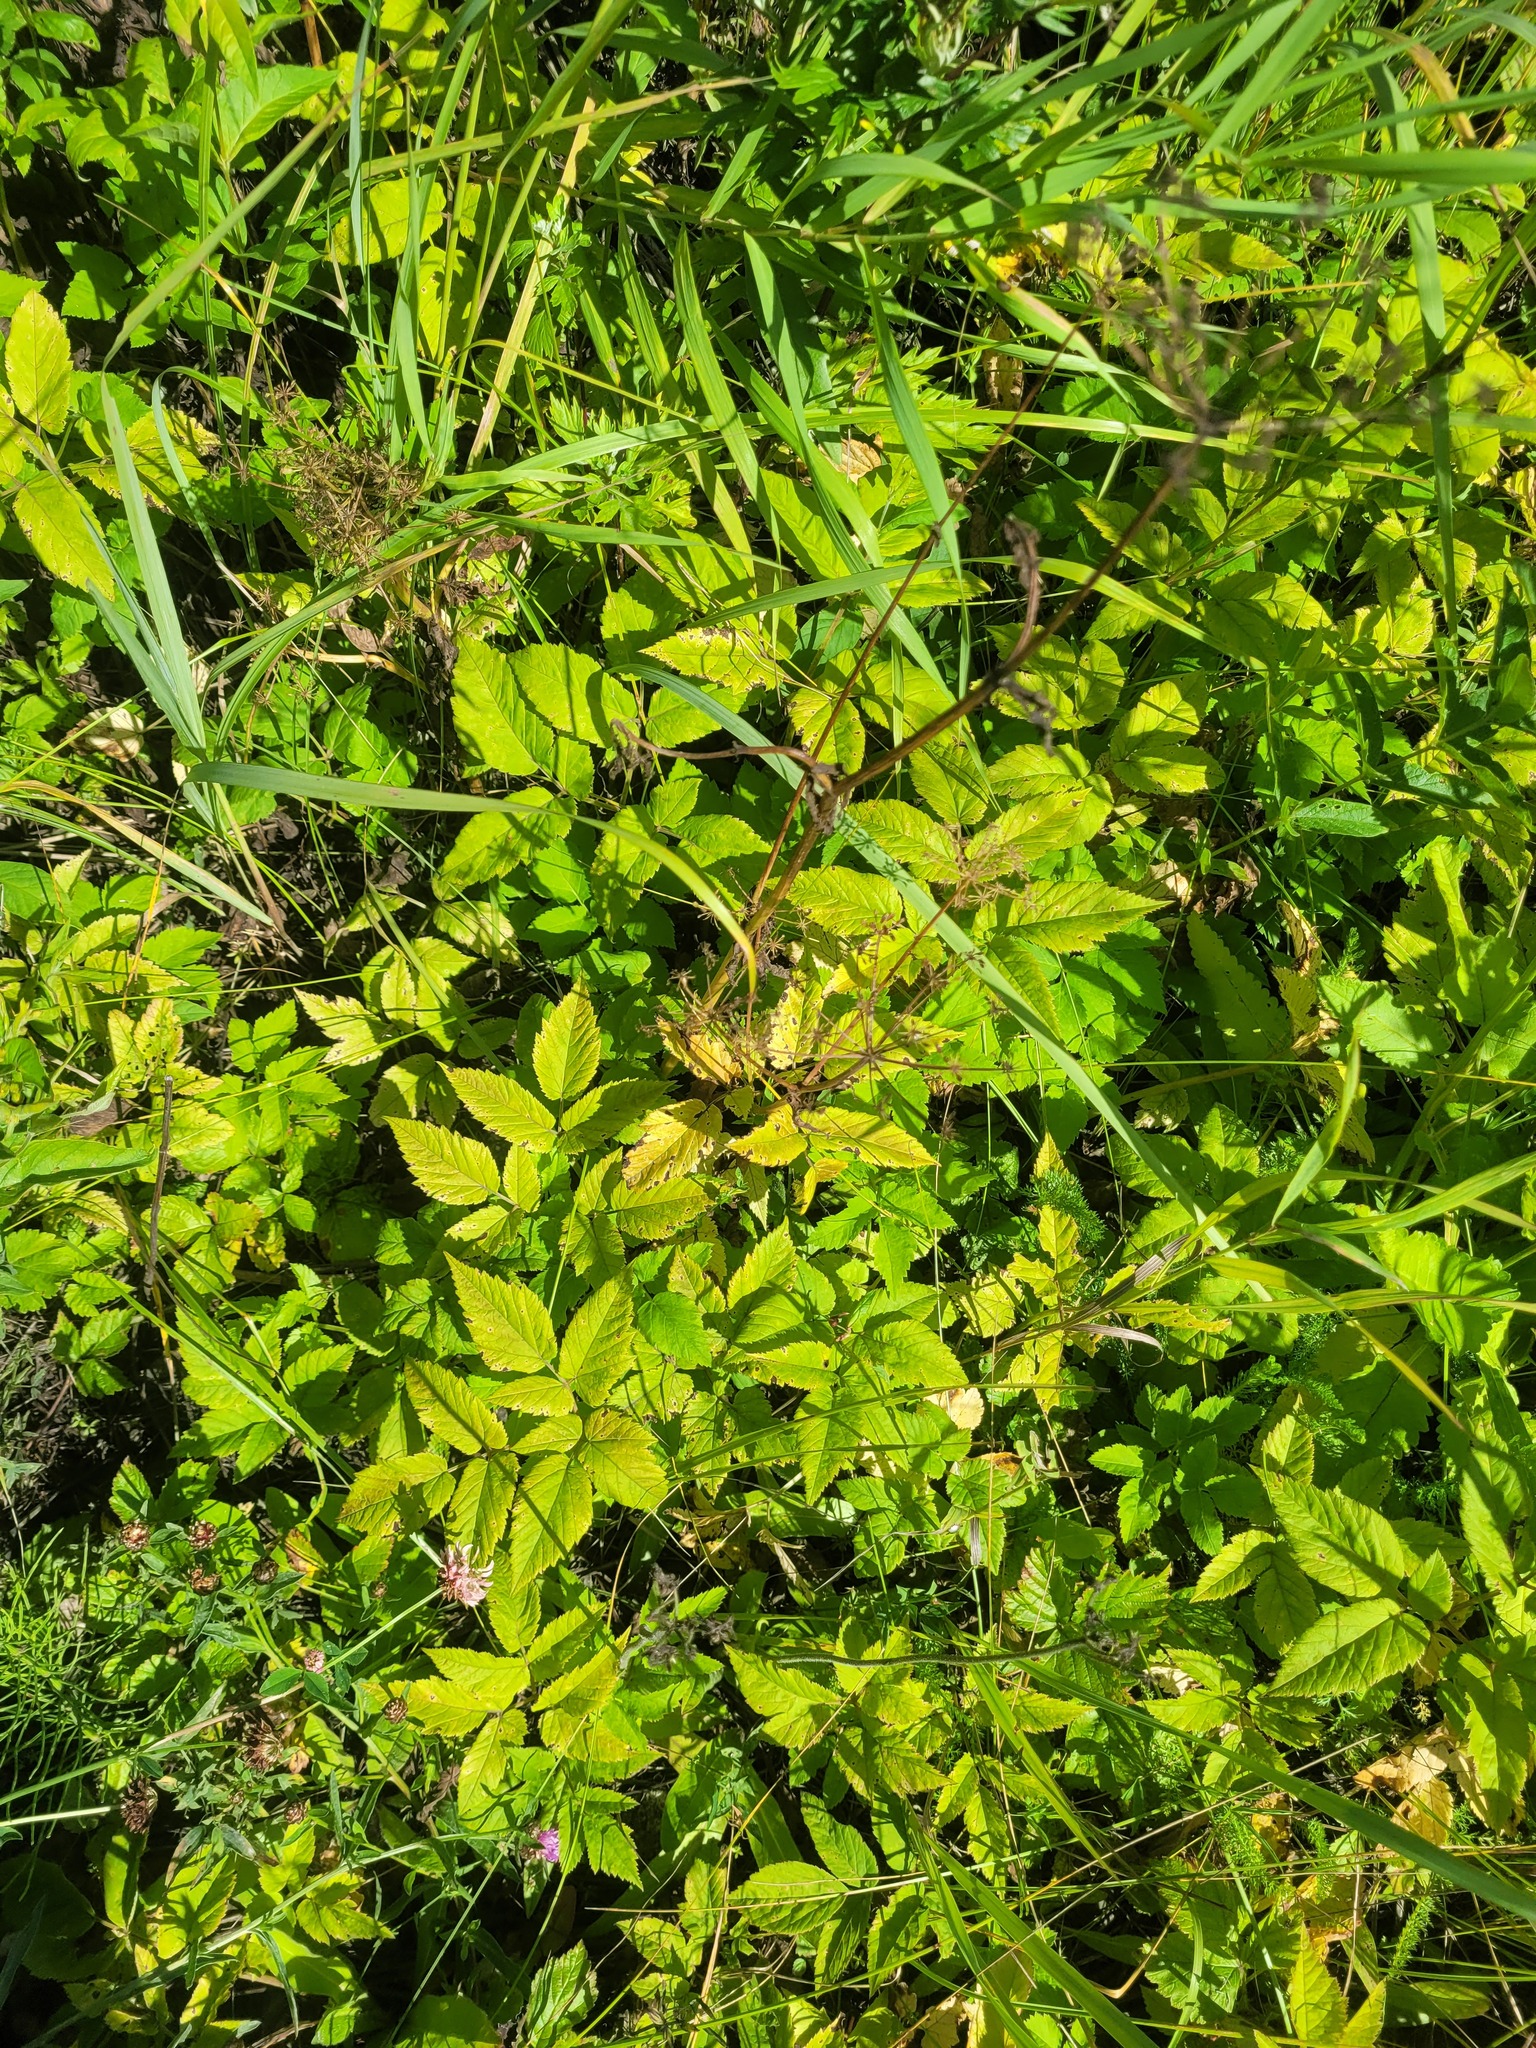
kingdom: Plantae
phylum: Tracheophyta
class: Magnoliopsida
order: Apiales
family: Apiaceae
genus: Aegopodium
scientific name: Aegopodium podagraria
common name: Ground-elder
